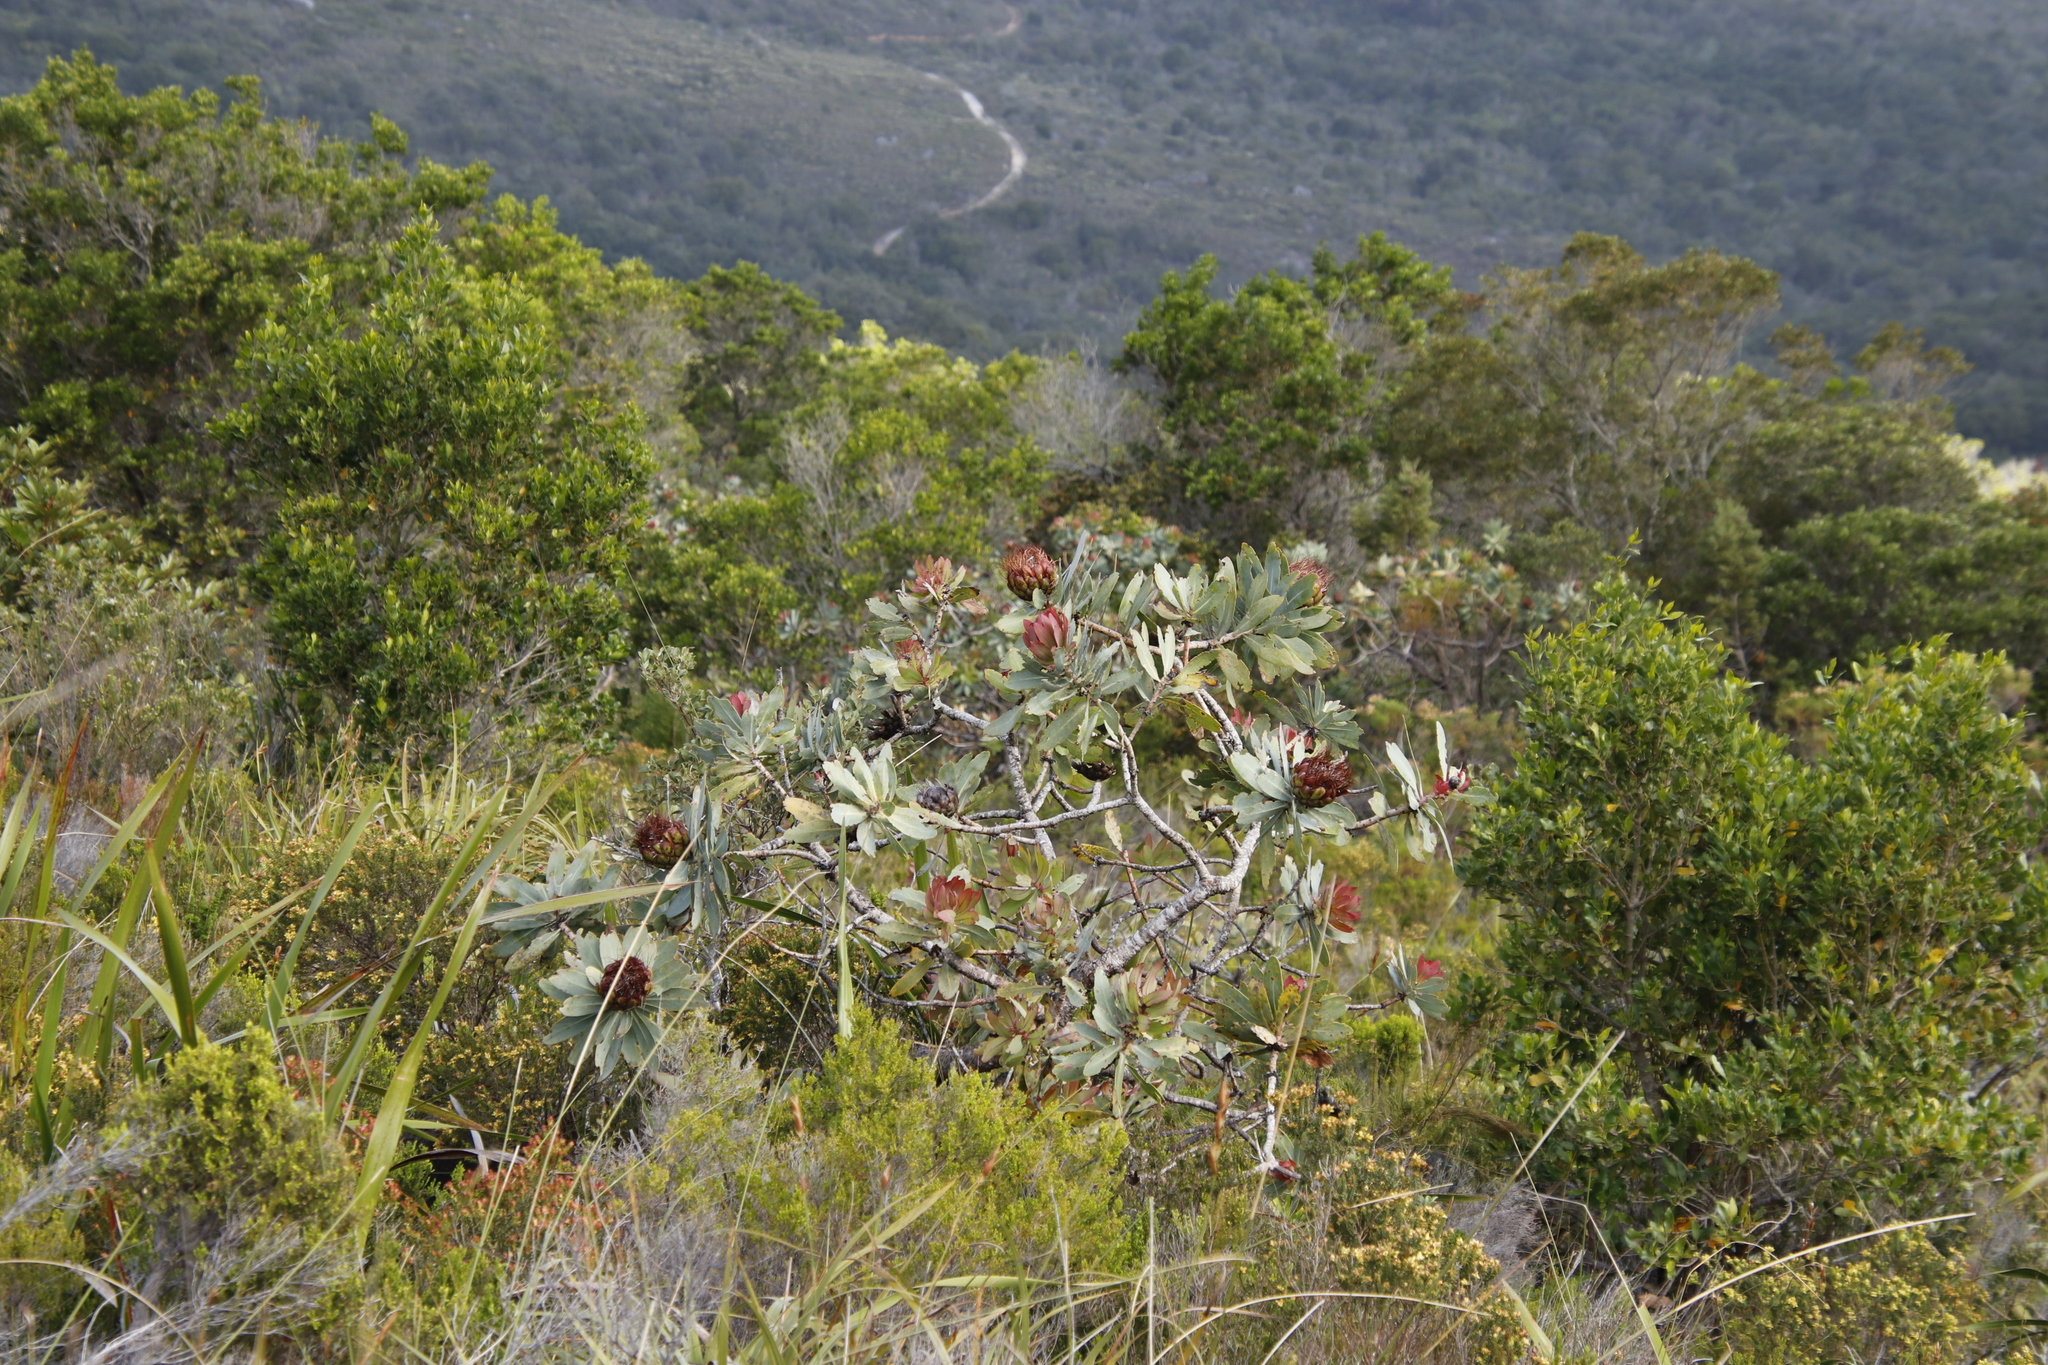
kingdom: Plantae
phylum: Tracheophyta
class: Magnoliopsida
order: Proteales
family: Proteaceae
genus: Protea
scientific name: Protea nitida
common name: Tree protea
